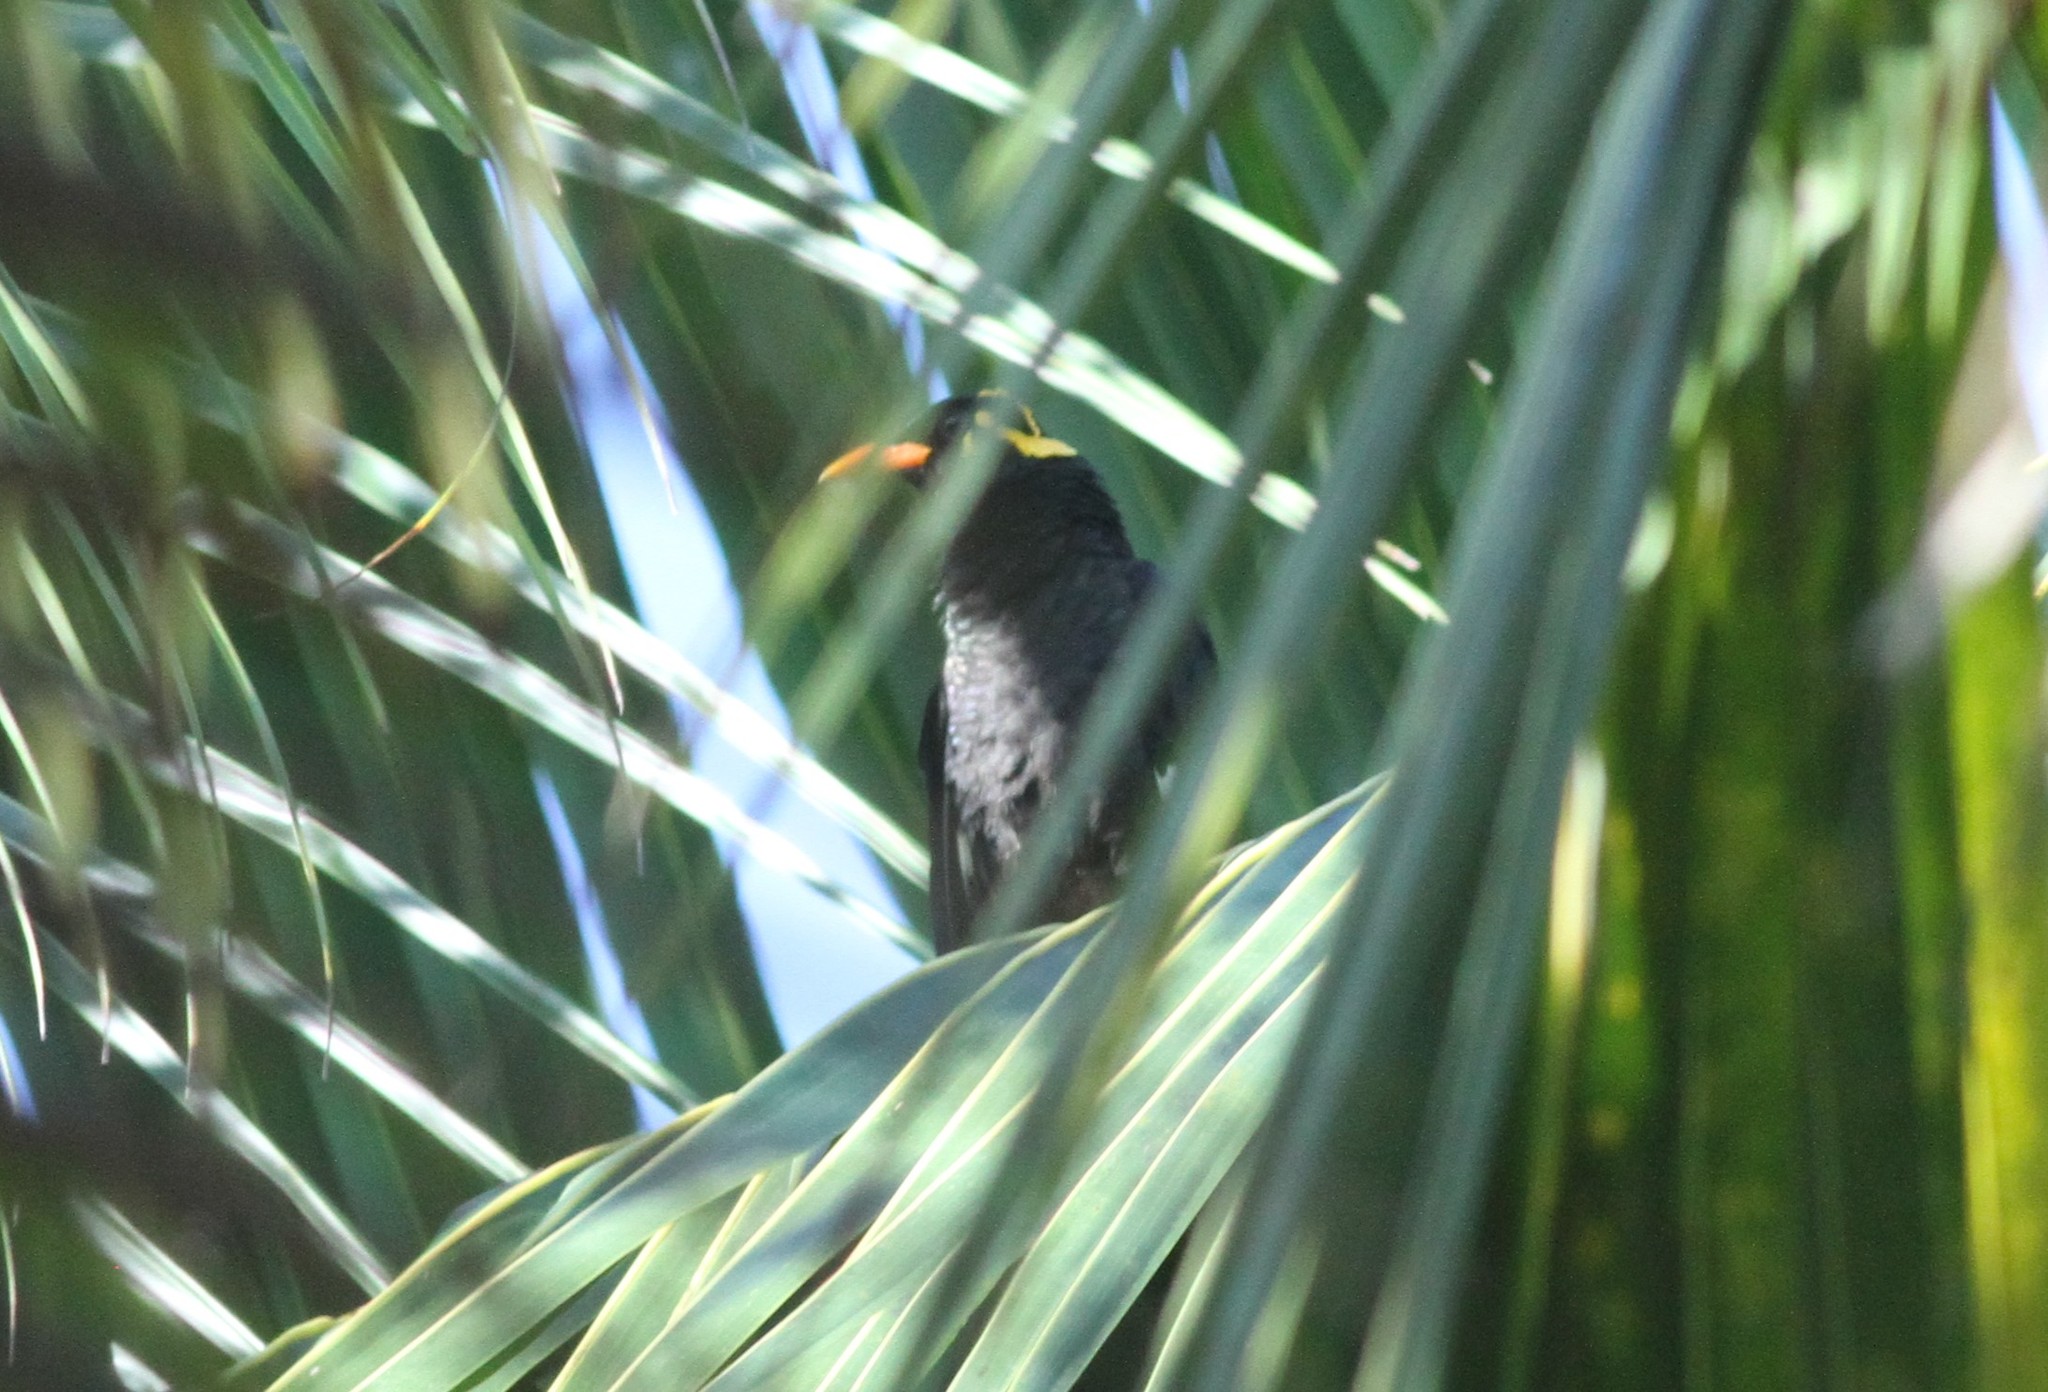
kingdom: Animalia
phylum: Chordata
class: Aves
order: Passeriformes
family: Sturnidae
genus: Gracula
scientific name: Gracula indica
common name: Southern hill myna
